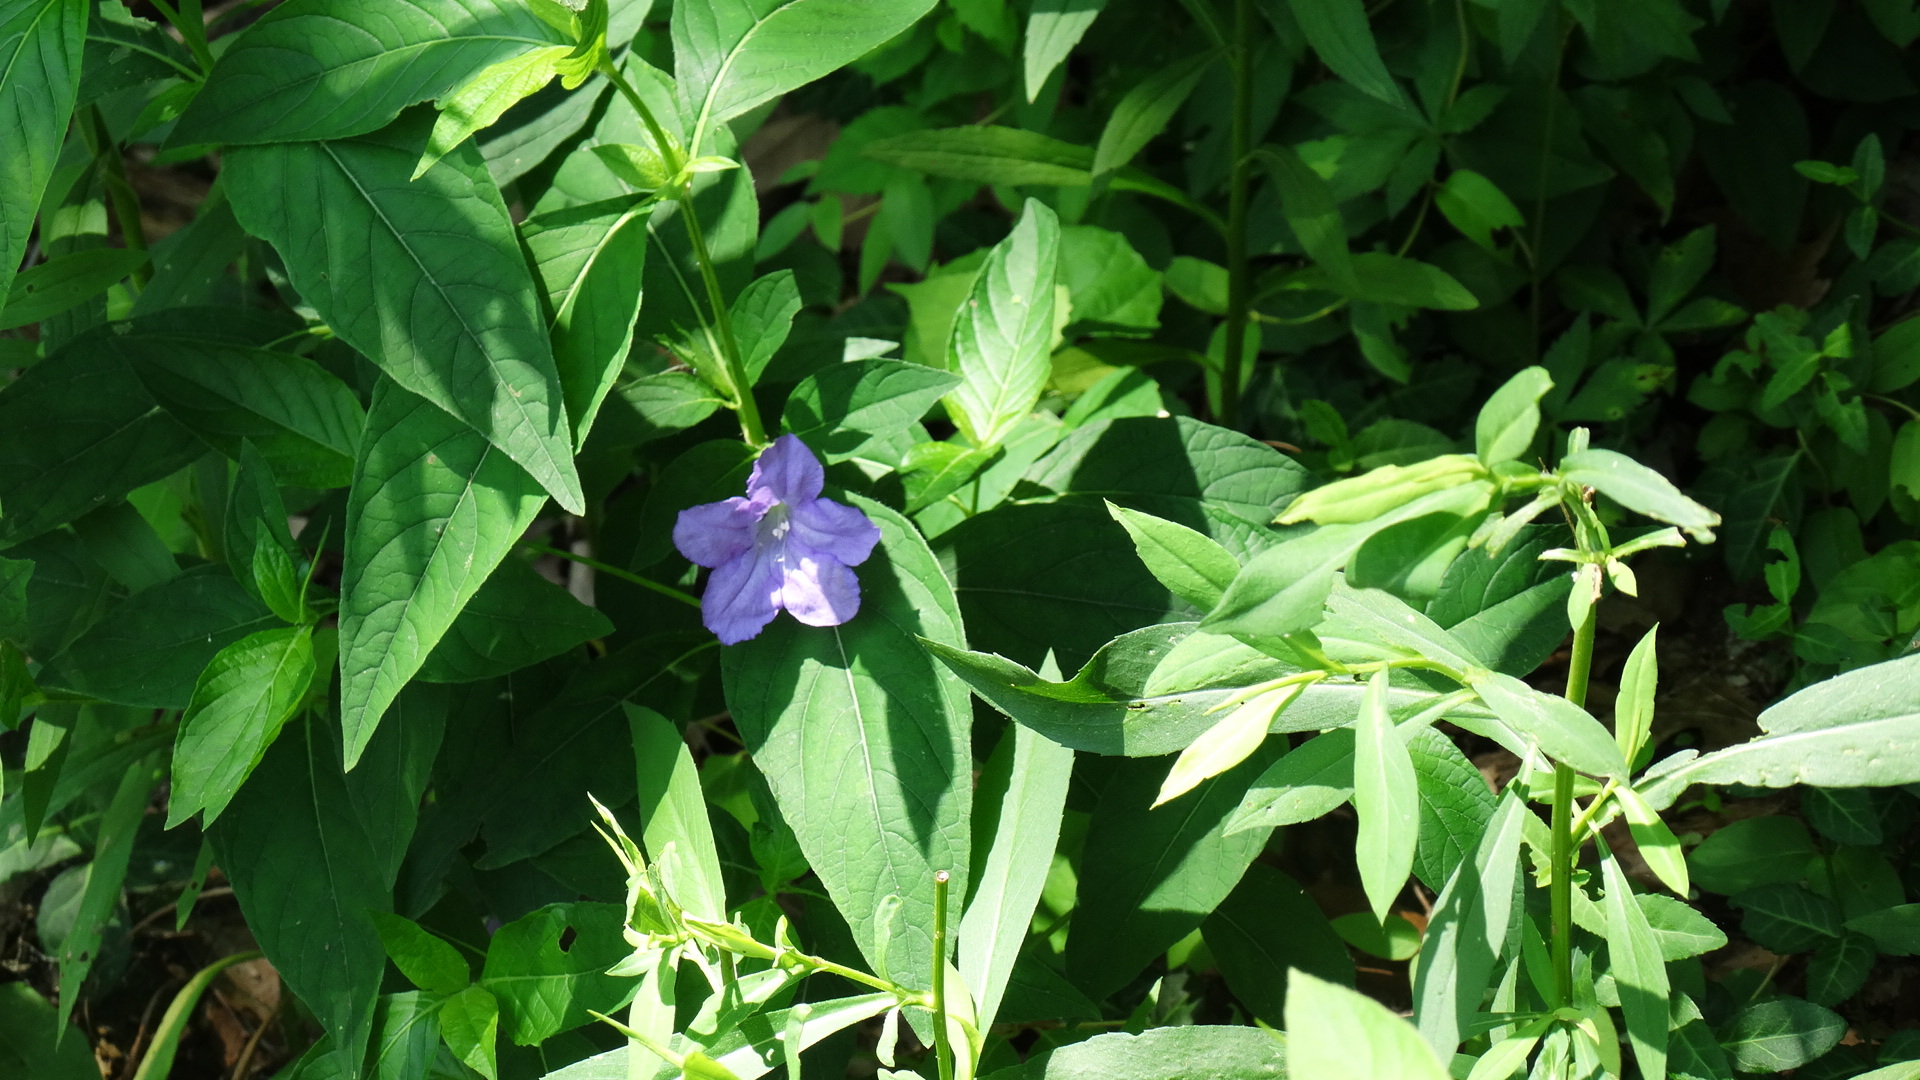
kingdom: Plantae
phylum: Tracheophyta
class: Magnoliopsida
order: Lamiales
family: Acanthaceae
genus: Ruellia
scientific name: Ruellia strepens
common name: Limestone wild petunia
